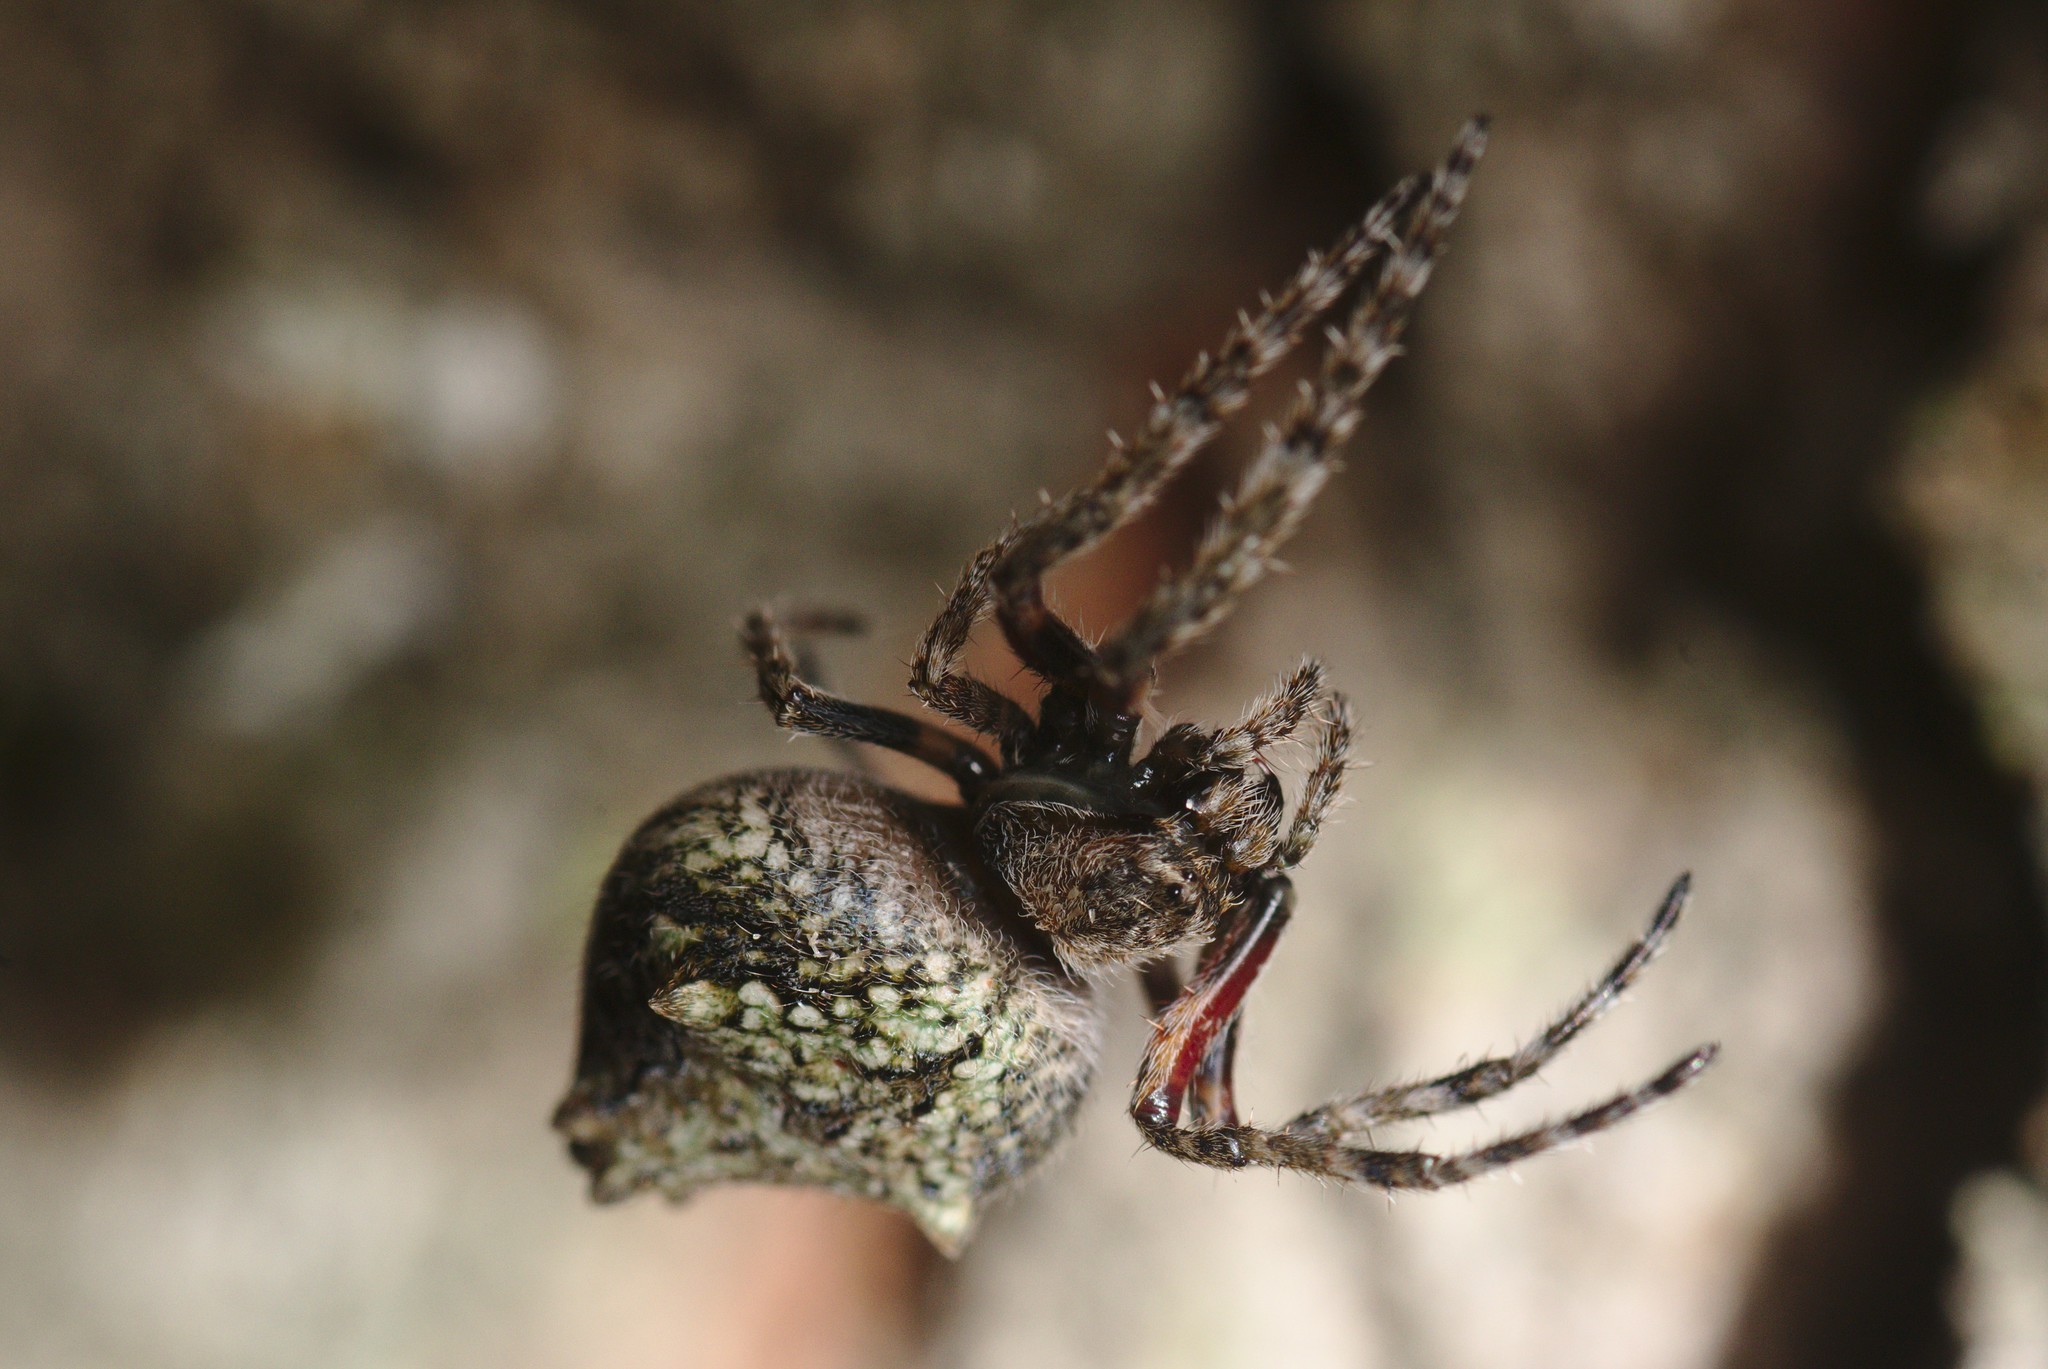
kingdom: Animalia
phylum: Arthropoda
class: Arachnida
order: Araneae
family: Araneidae
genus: Eriophora
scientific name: Eriophora pustulosa
